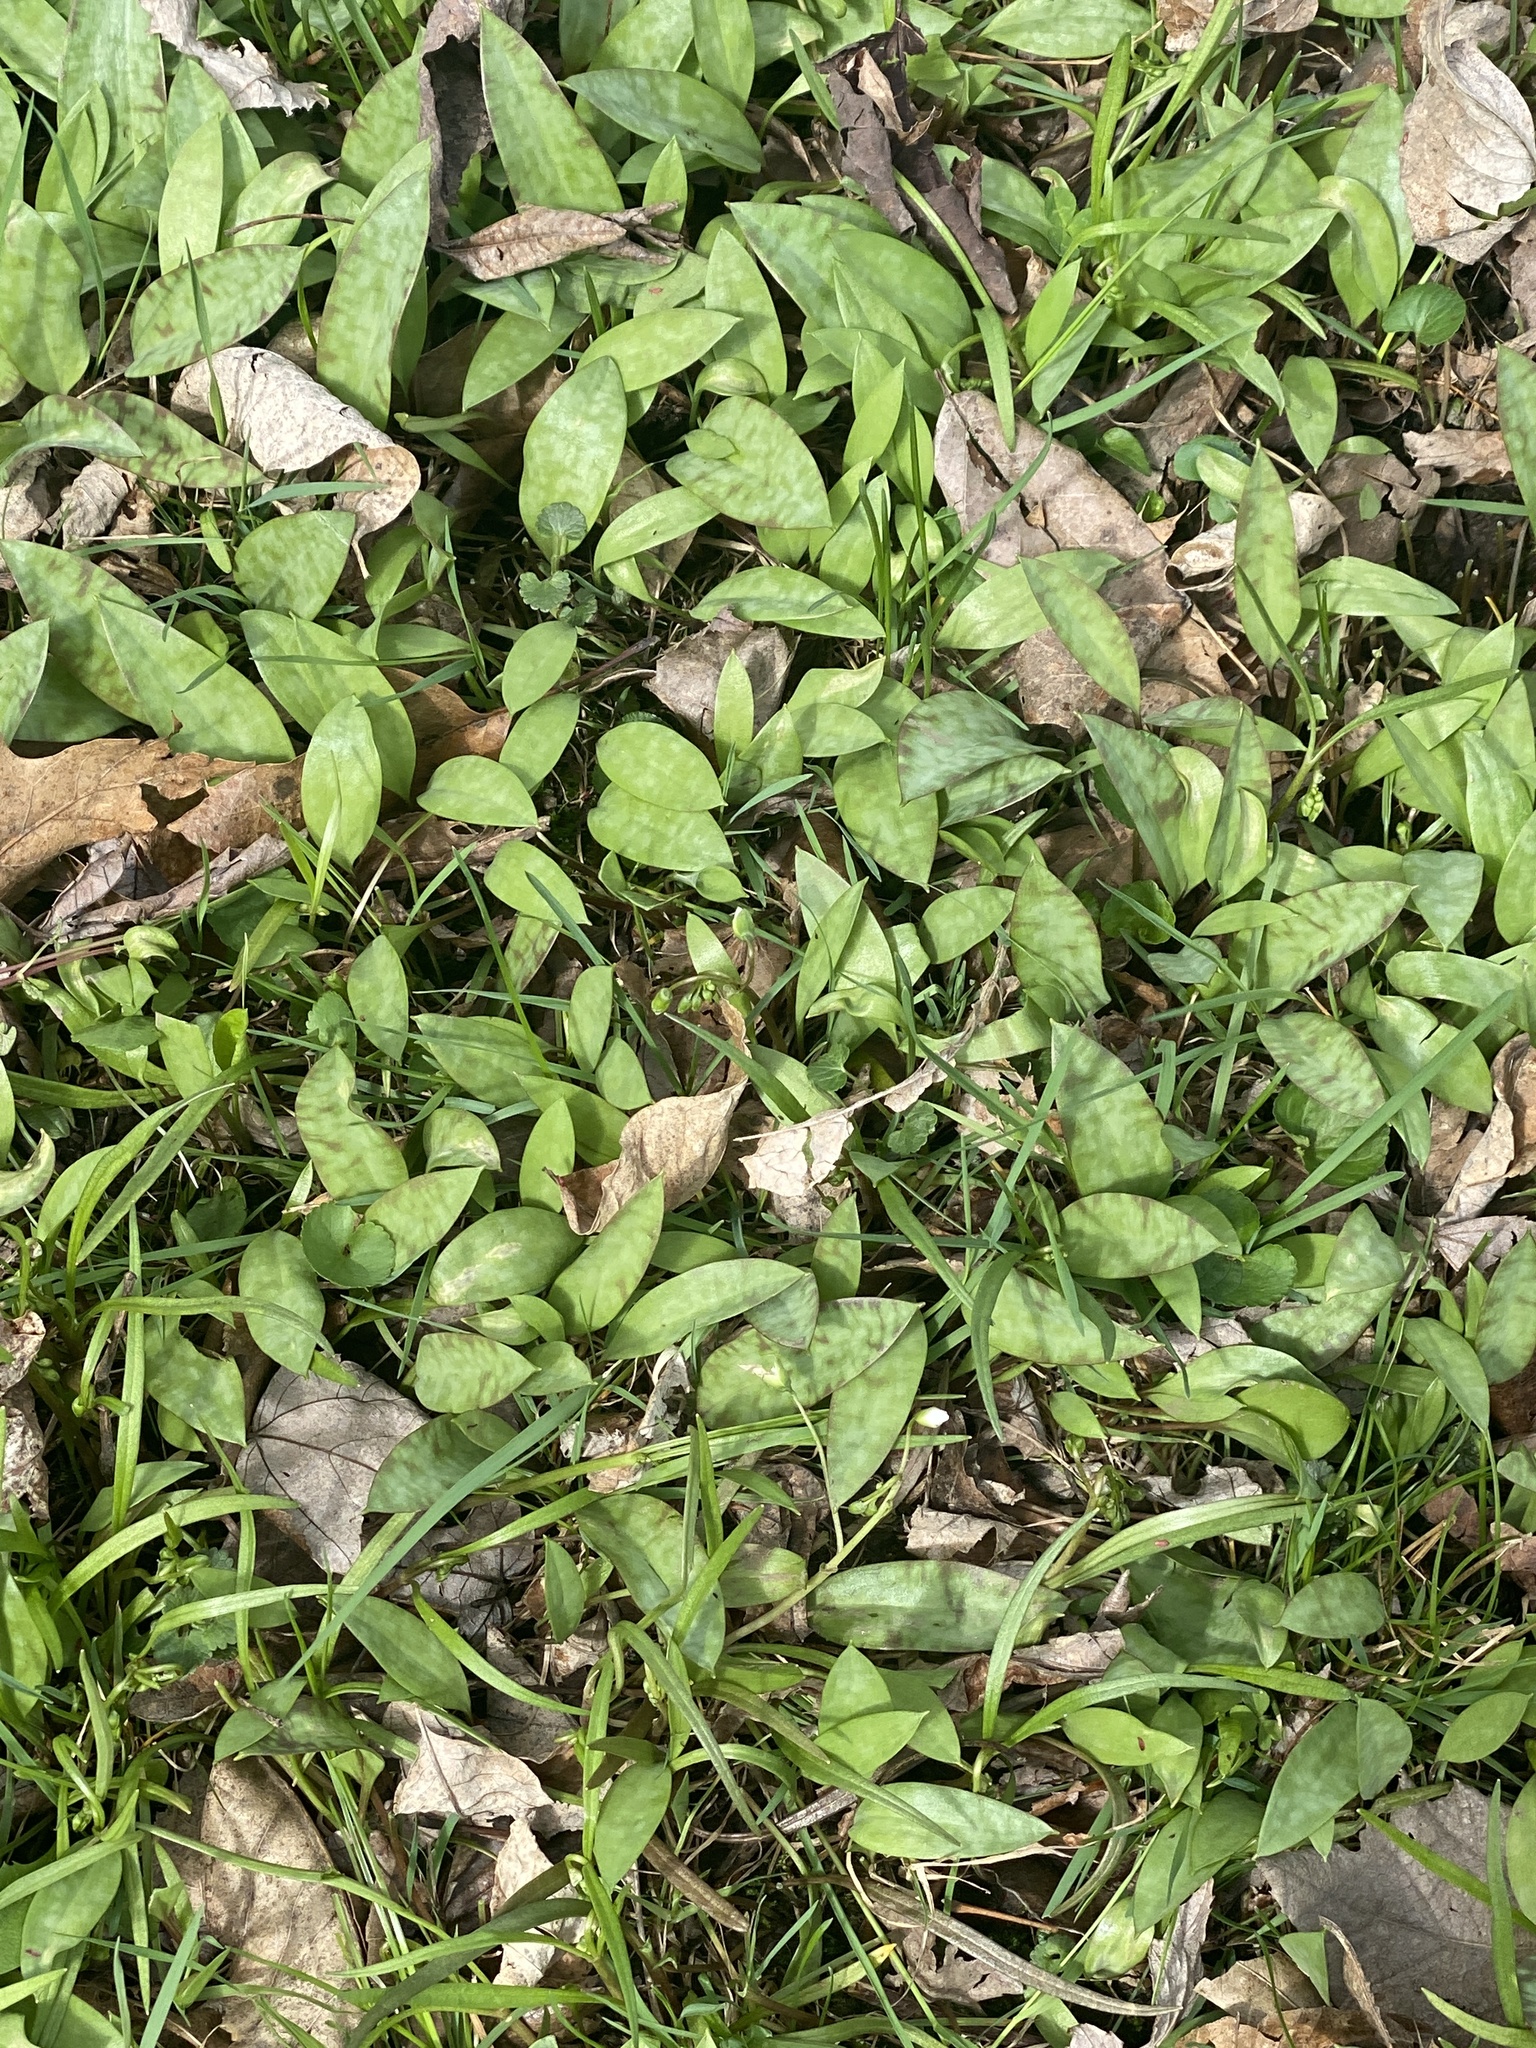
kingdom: Plantae
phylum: Tracheophyta
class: Liliopsida
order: Liliales
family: Liliaceae
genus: Erythronium
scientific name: Erythronium americanum
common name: Yellow adder's-tongue
